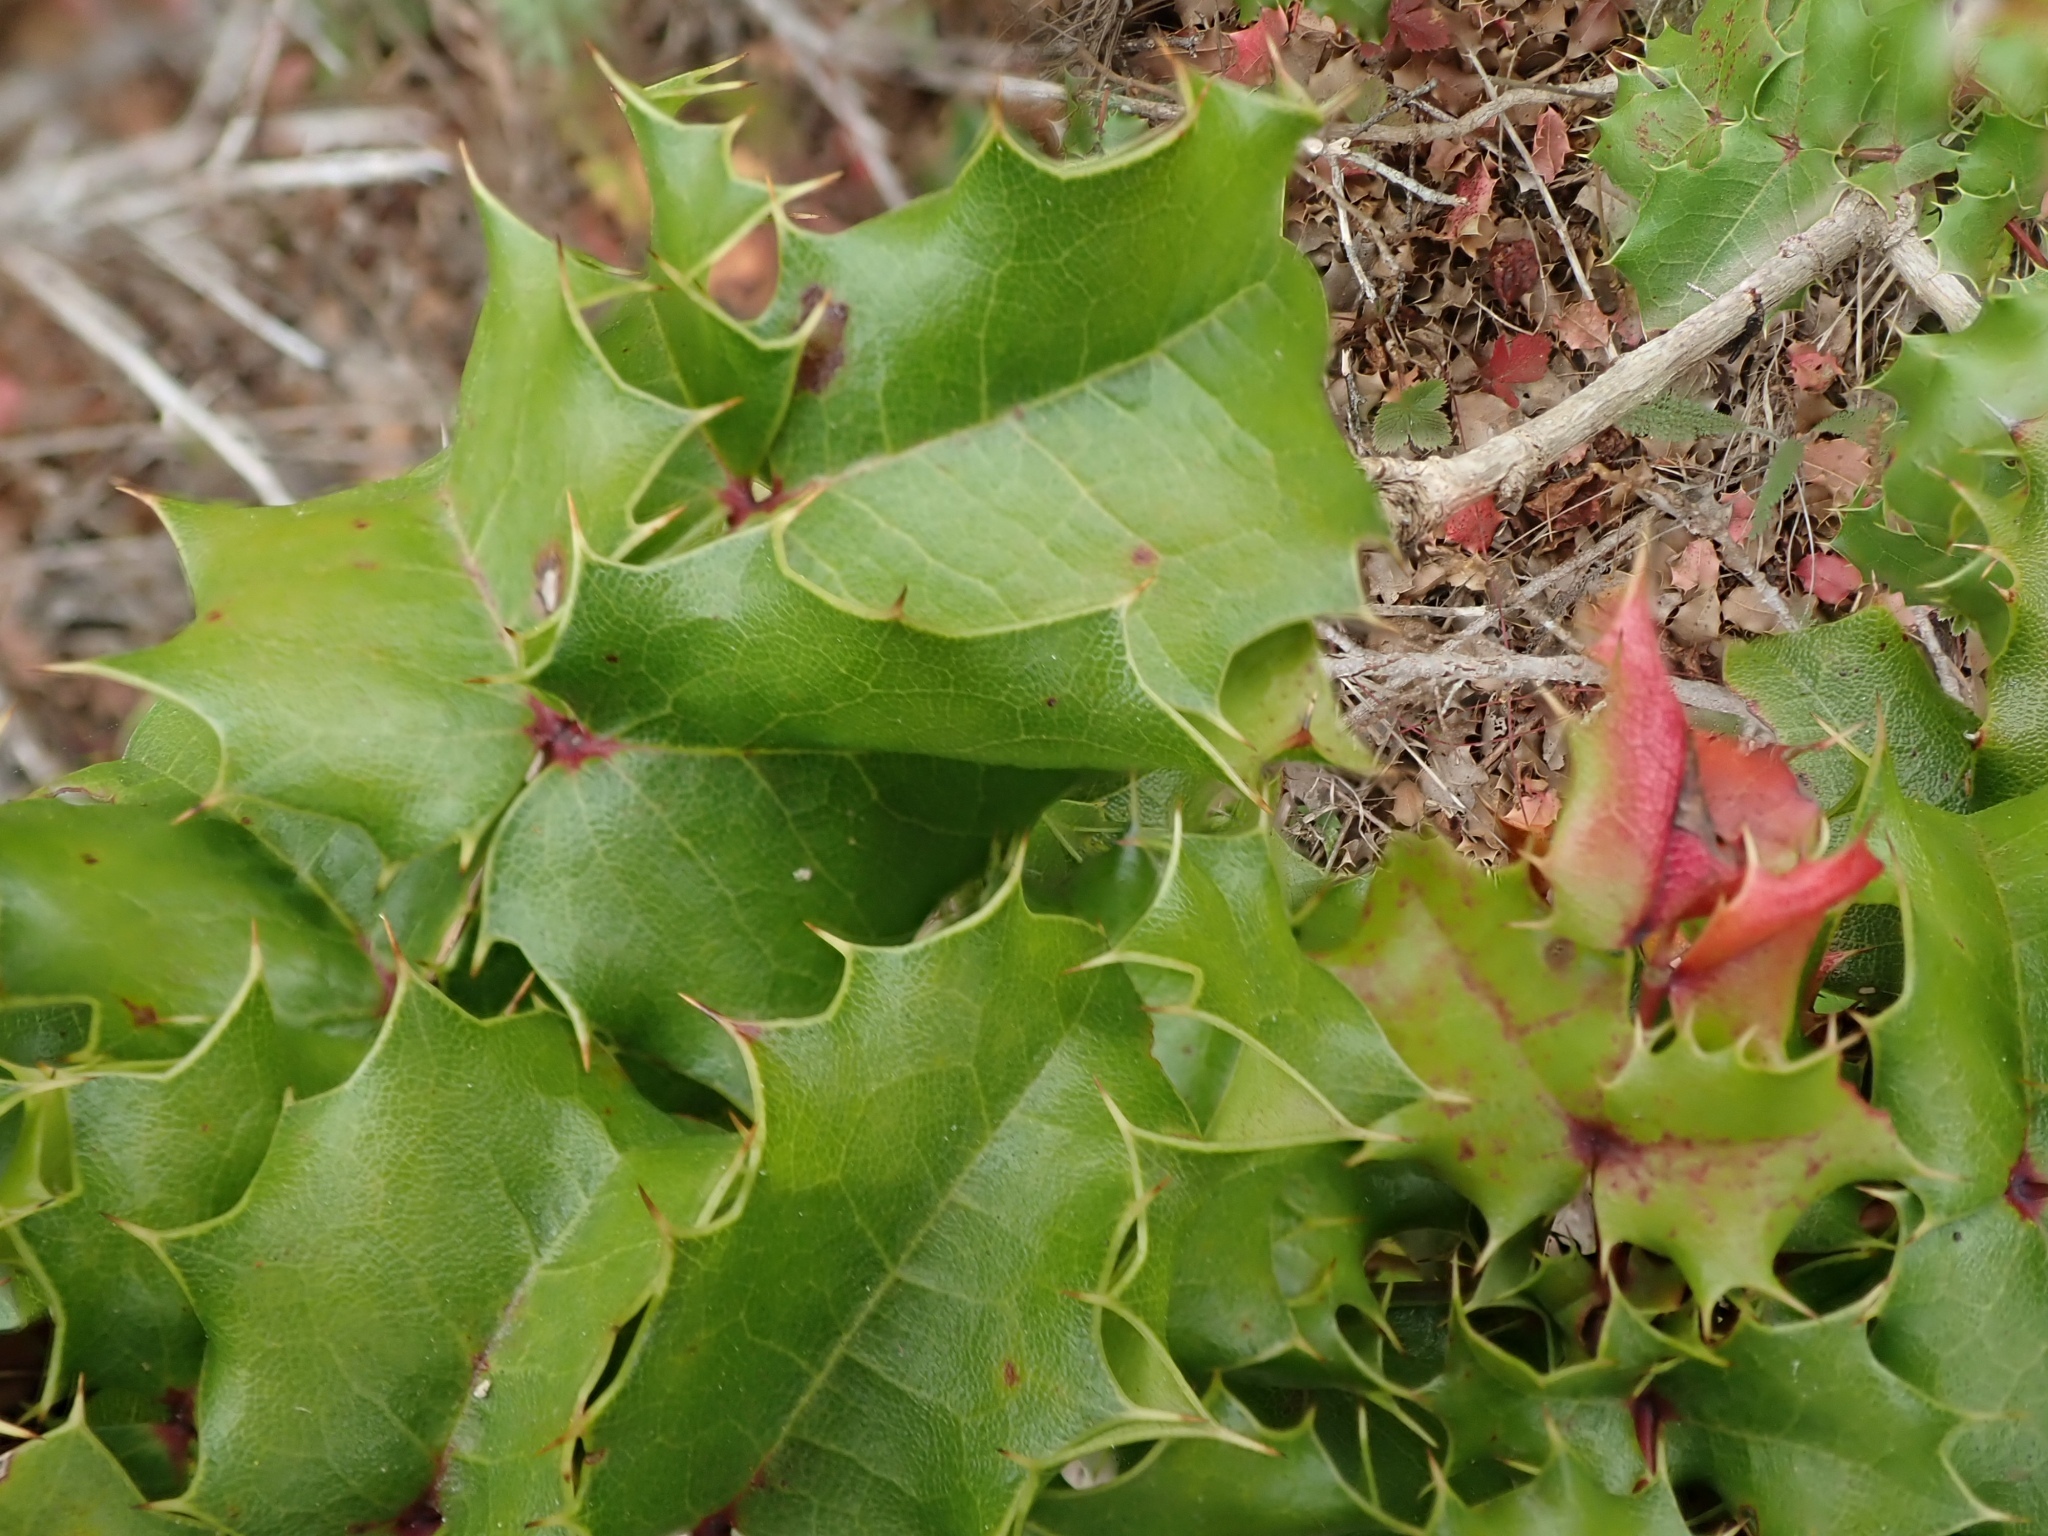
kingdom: Plantae
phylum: Tracheophyta
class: Magnoliopsida
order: Ranunculales
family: Berberidaceae
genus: Mahonia
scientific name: Mahonia
